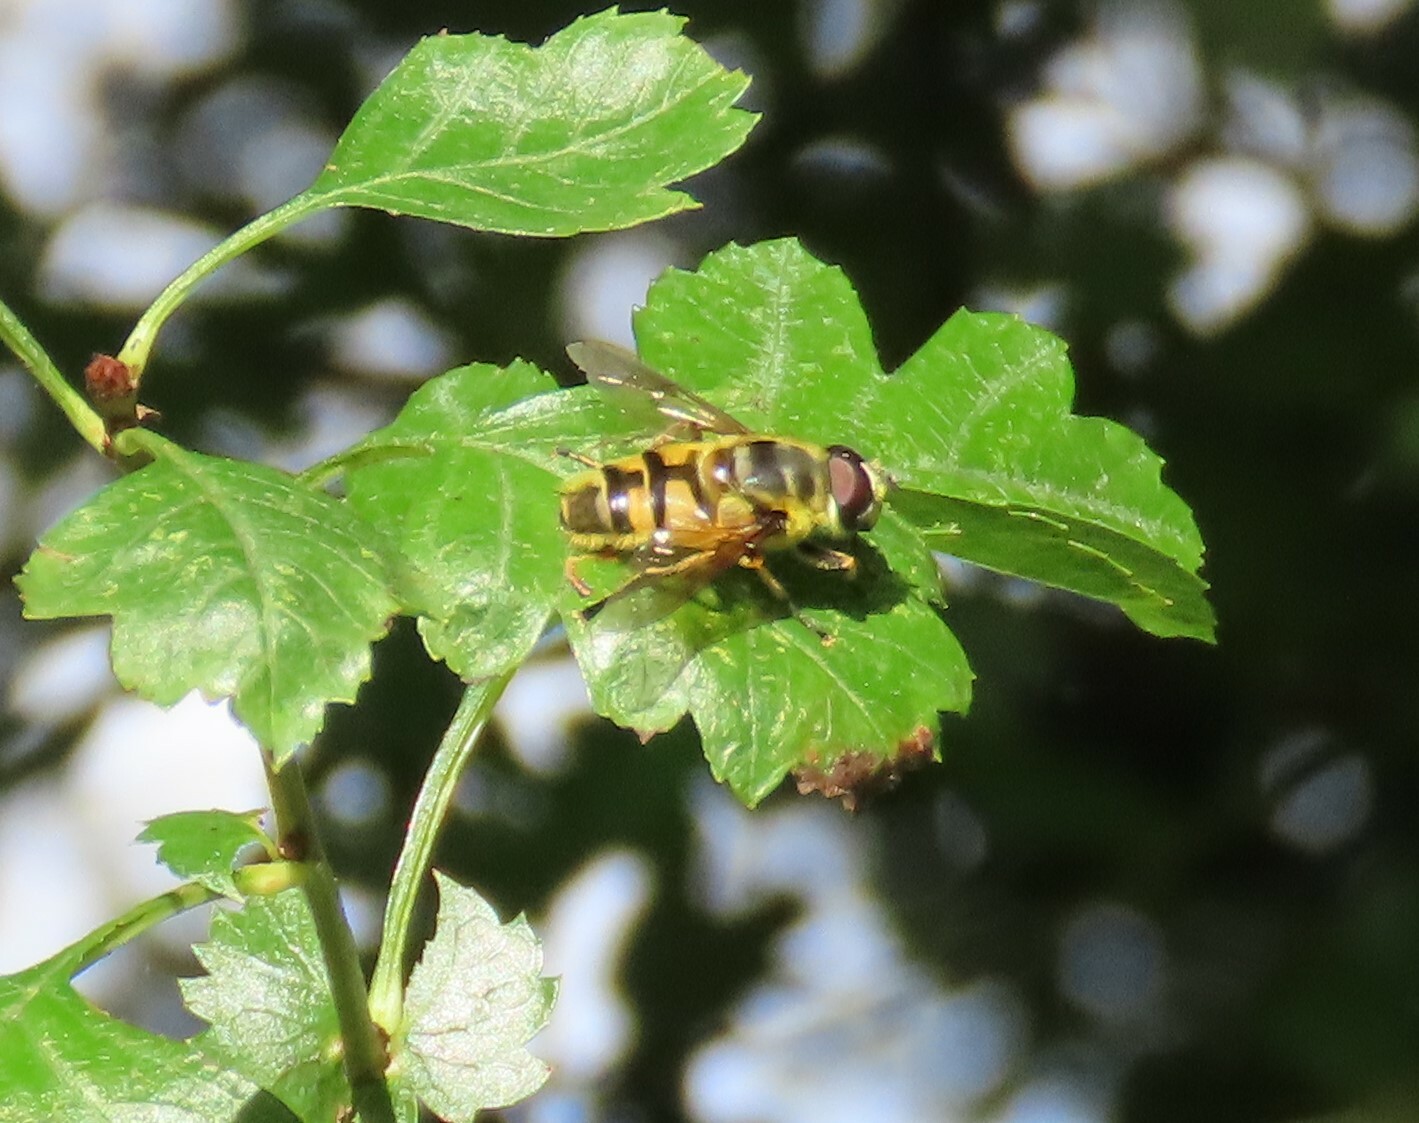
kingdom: Animalia
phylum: Arthropoda
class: Insecta
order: Diptera
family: Syrphidae
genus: Myathropa
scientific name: Myathropa florea
